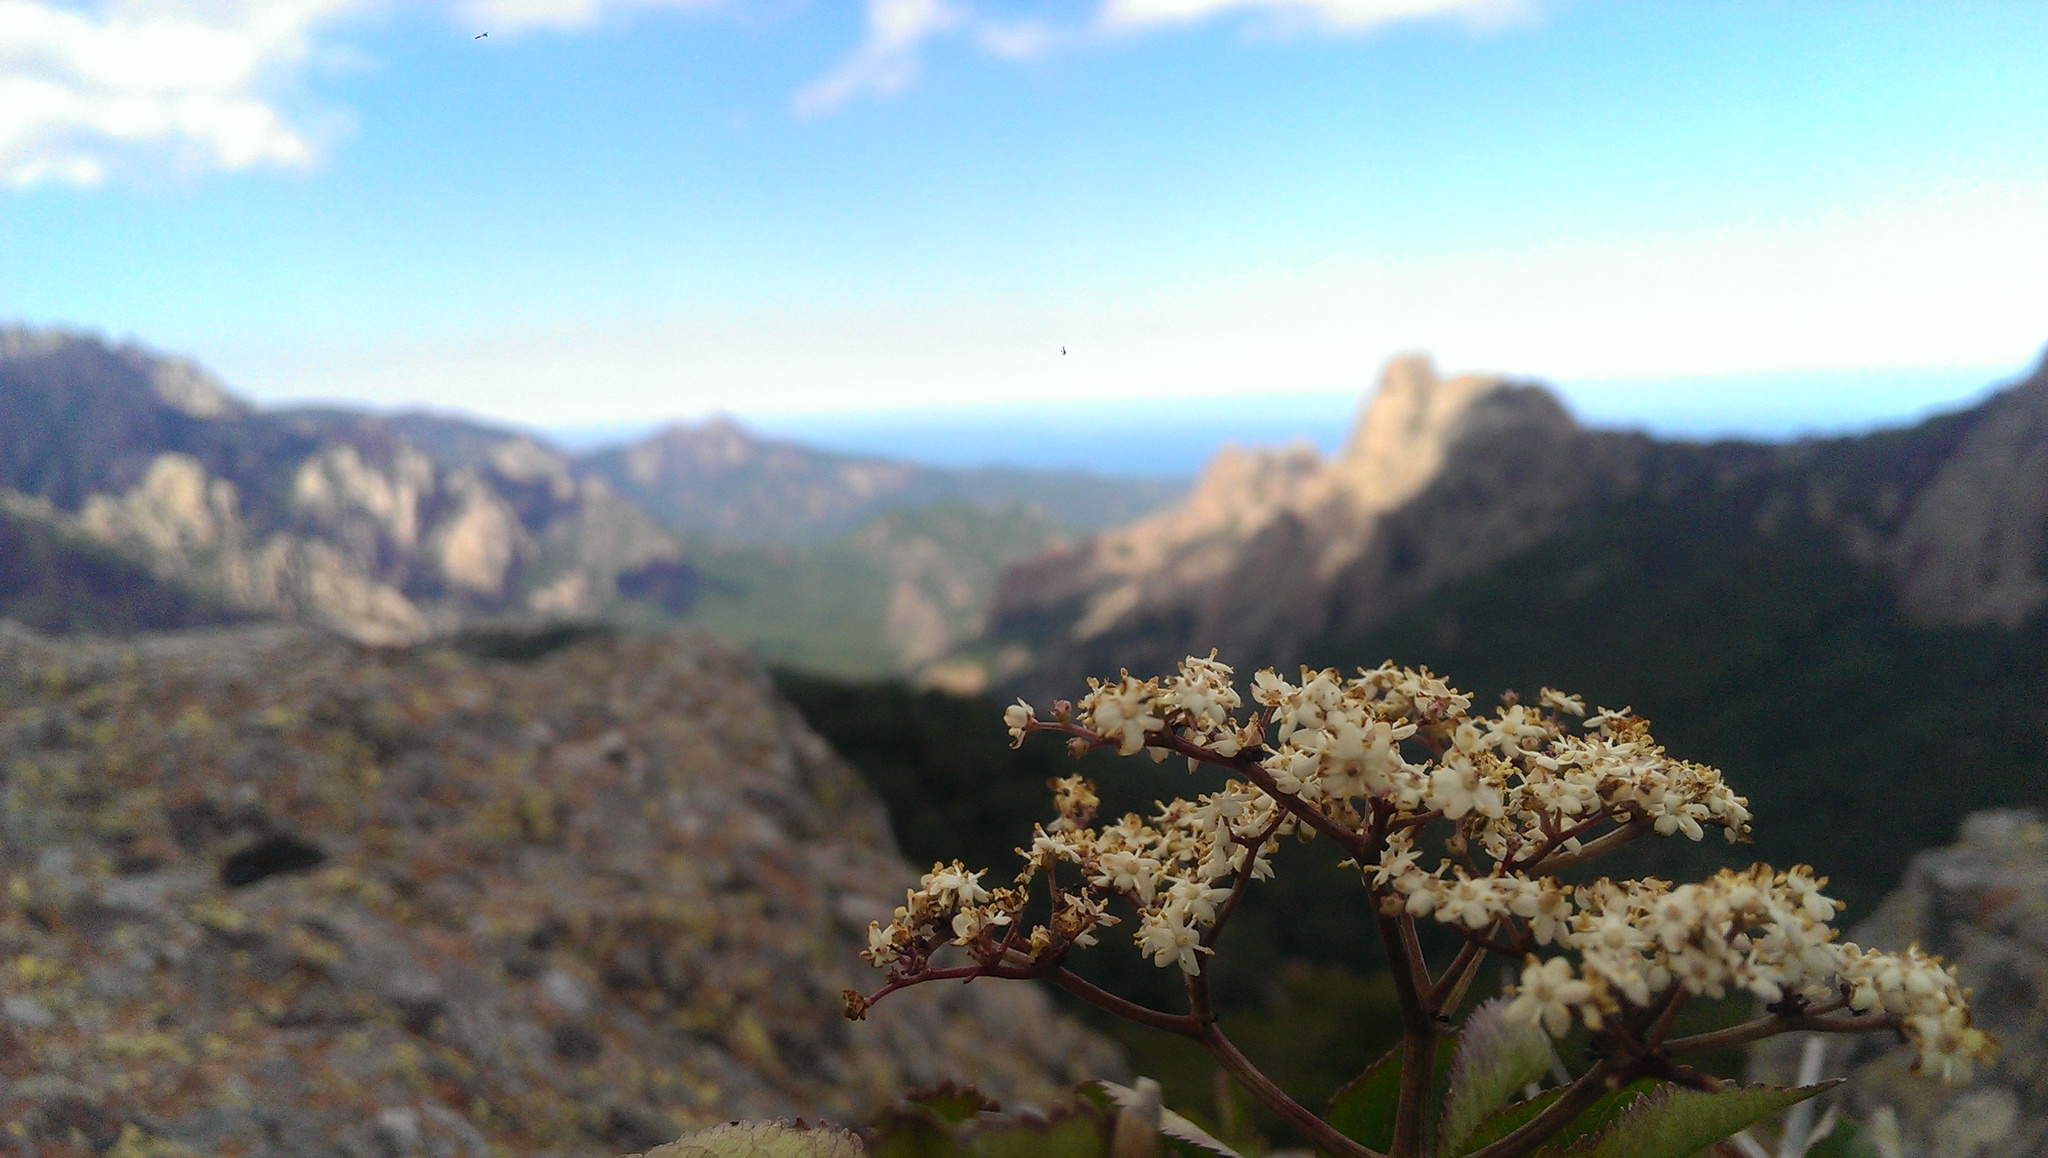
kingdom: Plantae
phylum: Tracheophyta
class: Magnoliopsida
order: Dipsacales
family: Viburnaceae
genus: Sambucus
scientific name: Sambucus nigra
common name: Elder
